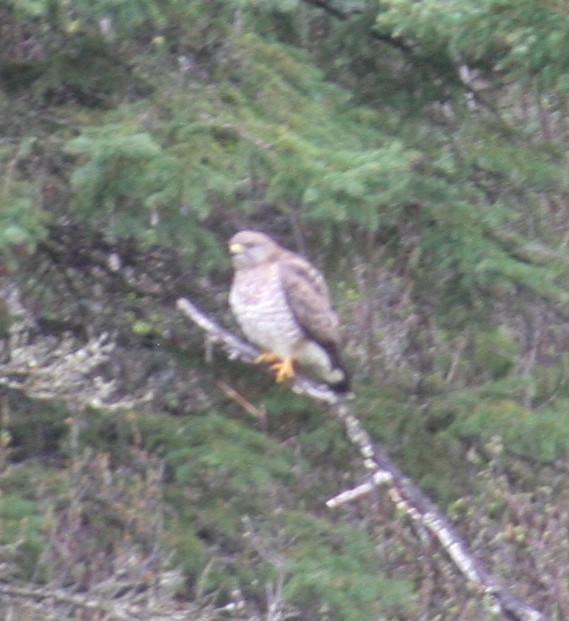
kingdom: Animalia
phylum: Chordata
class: Aves
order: Accipitriformes
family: Accipitridae
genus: Buteo
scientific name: Buteo platypterus
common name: Broad-winged hawk
